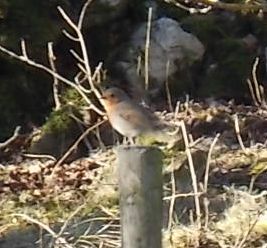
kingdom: Animalia
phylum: Chordata
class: Aves
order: Passeriformes
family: Muscicapidae
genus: Erithacus
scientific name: Erithacus rubecula
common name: European robin
